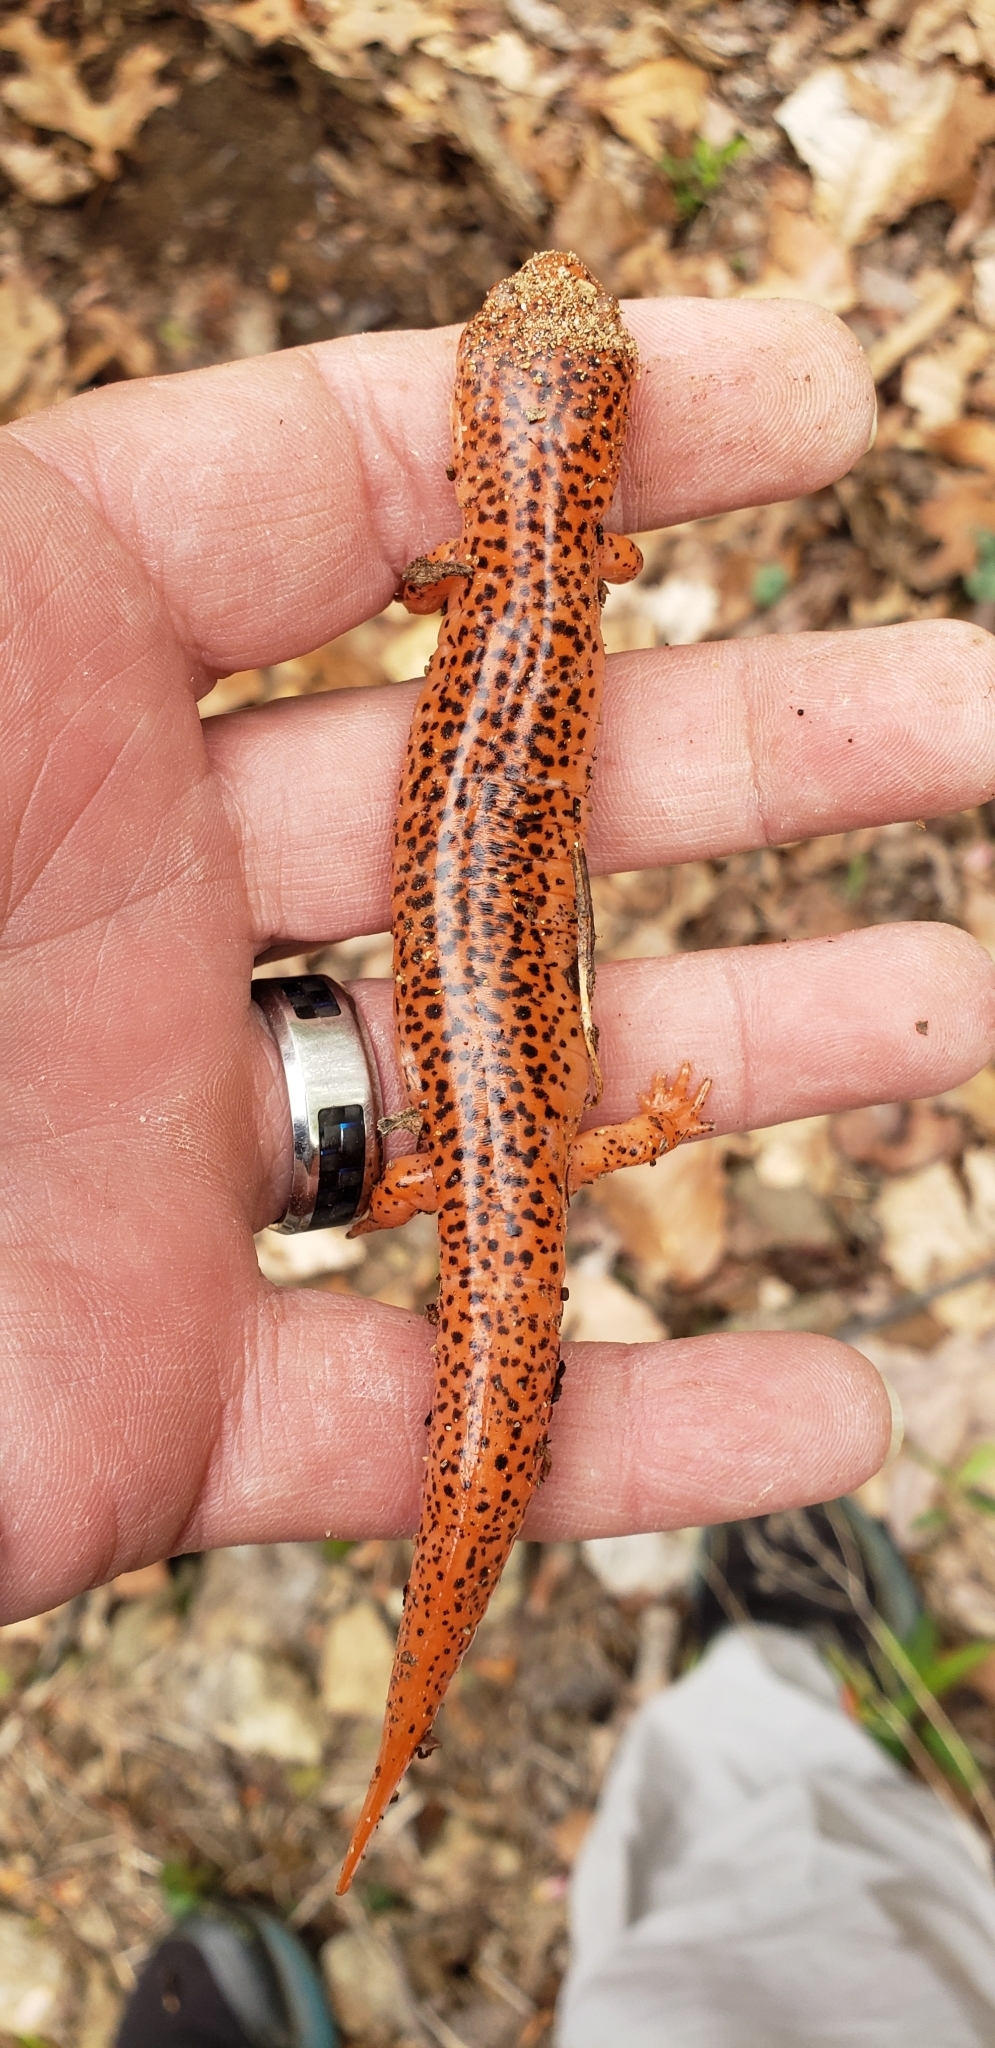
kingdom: Animalia
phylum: Chordata
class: Amphibia
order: Caudata
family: Plethodontidae
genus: Pseudotriton
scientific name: Pseudotriton ruber
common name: Red salamander
